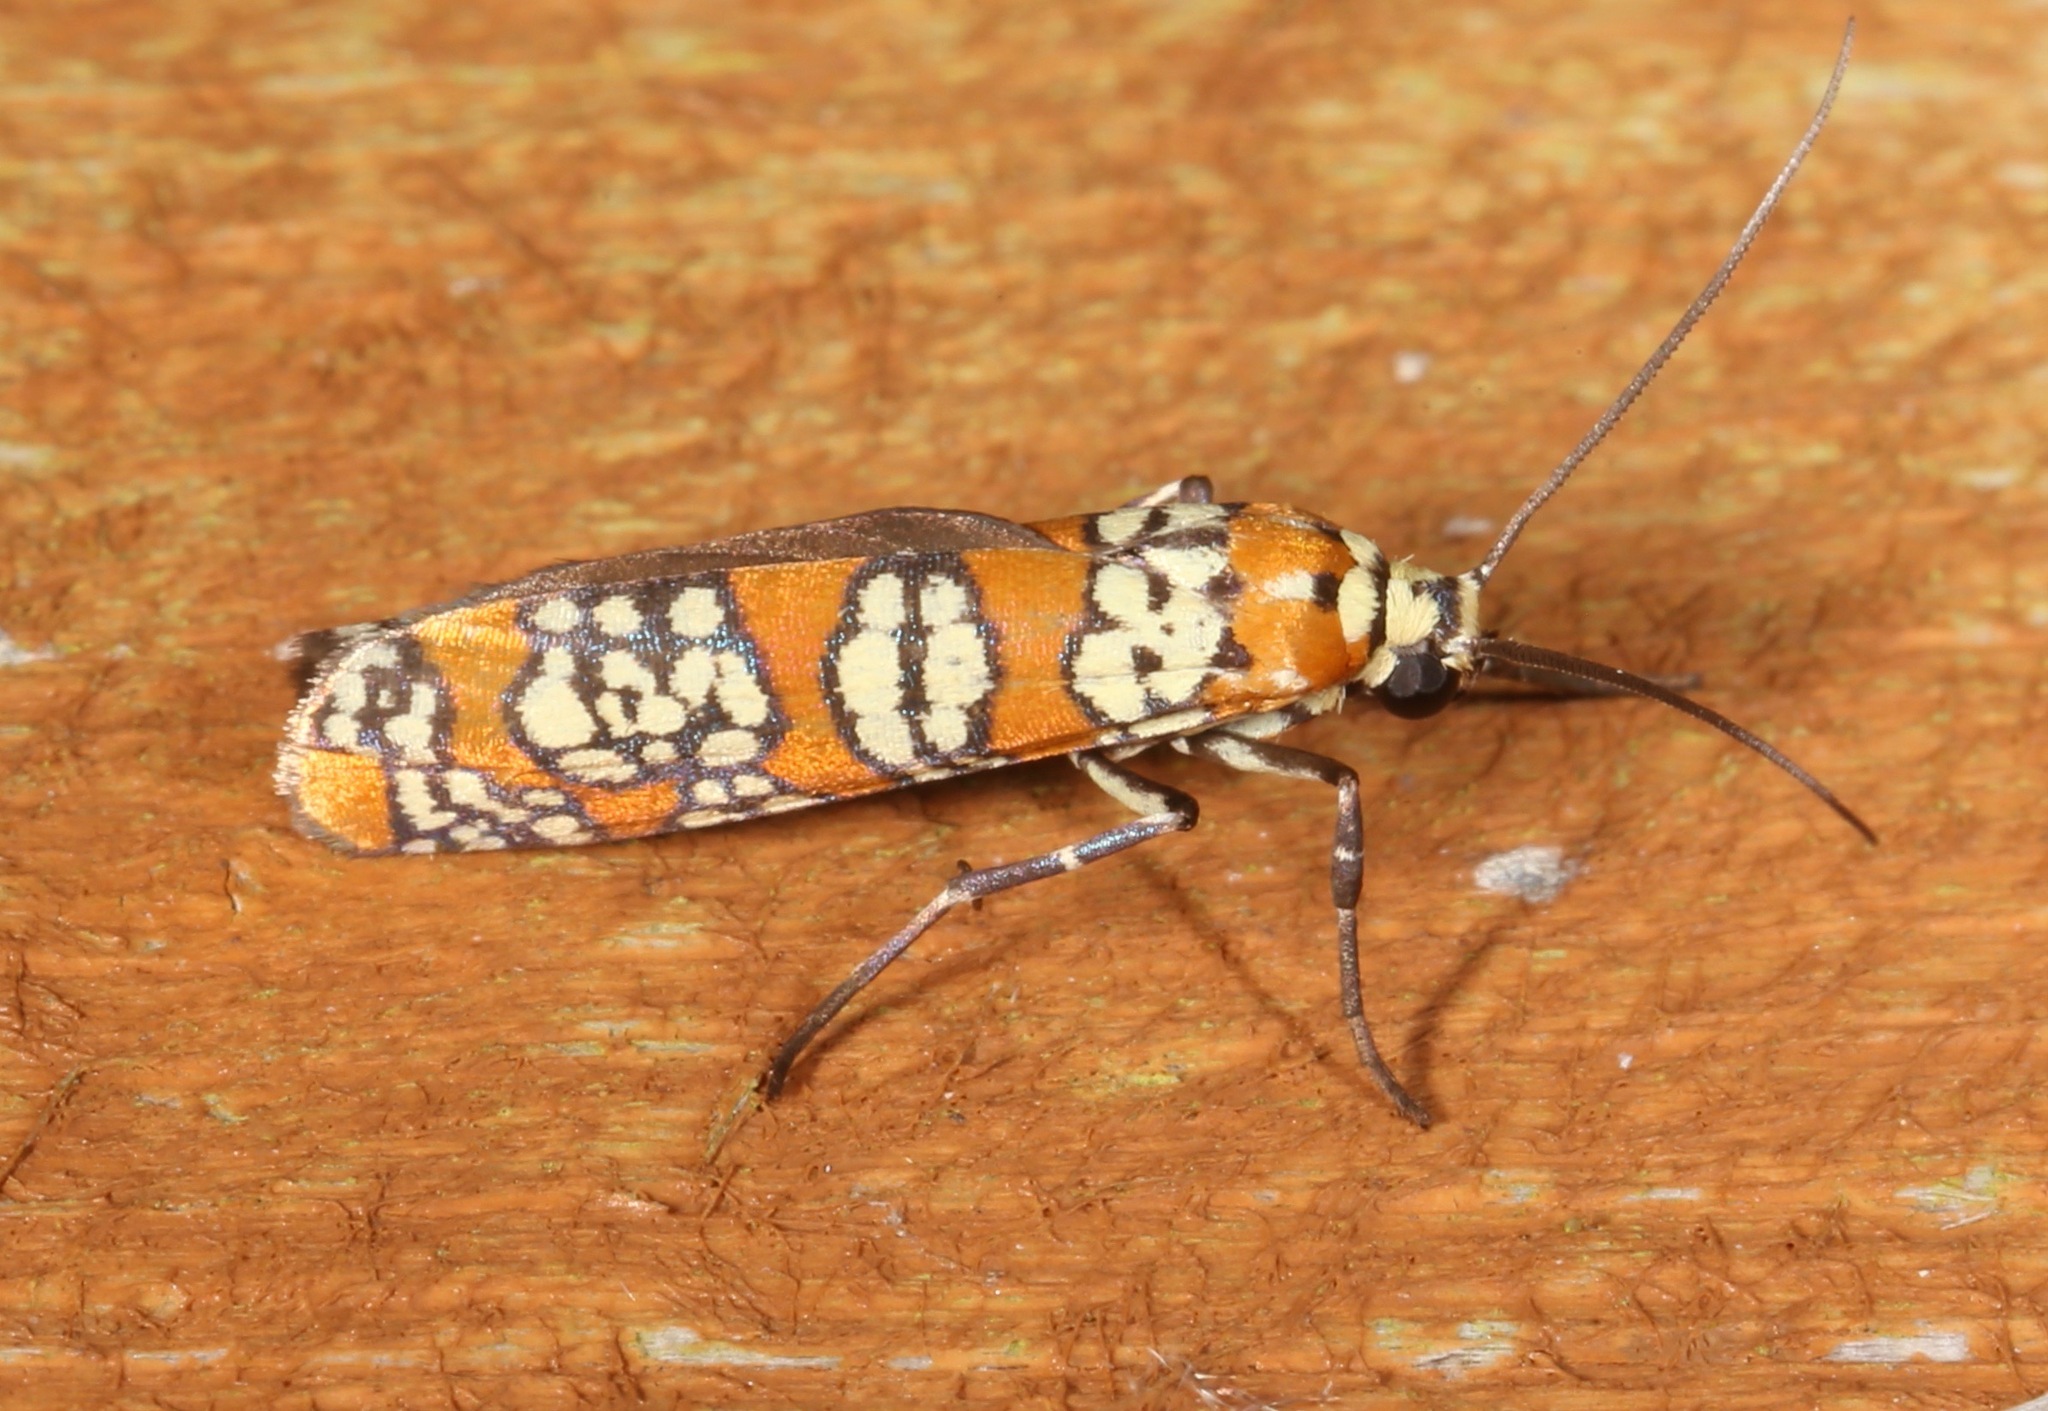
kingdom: Animalia
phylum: Arthropoda
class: Insecta
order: Lepidoptera
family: Attevidae
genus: Atteva
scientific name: Atteva punctella
